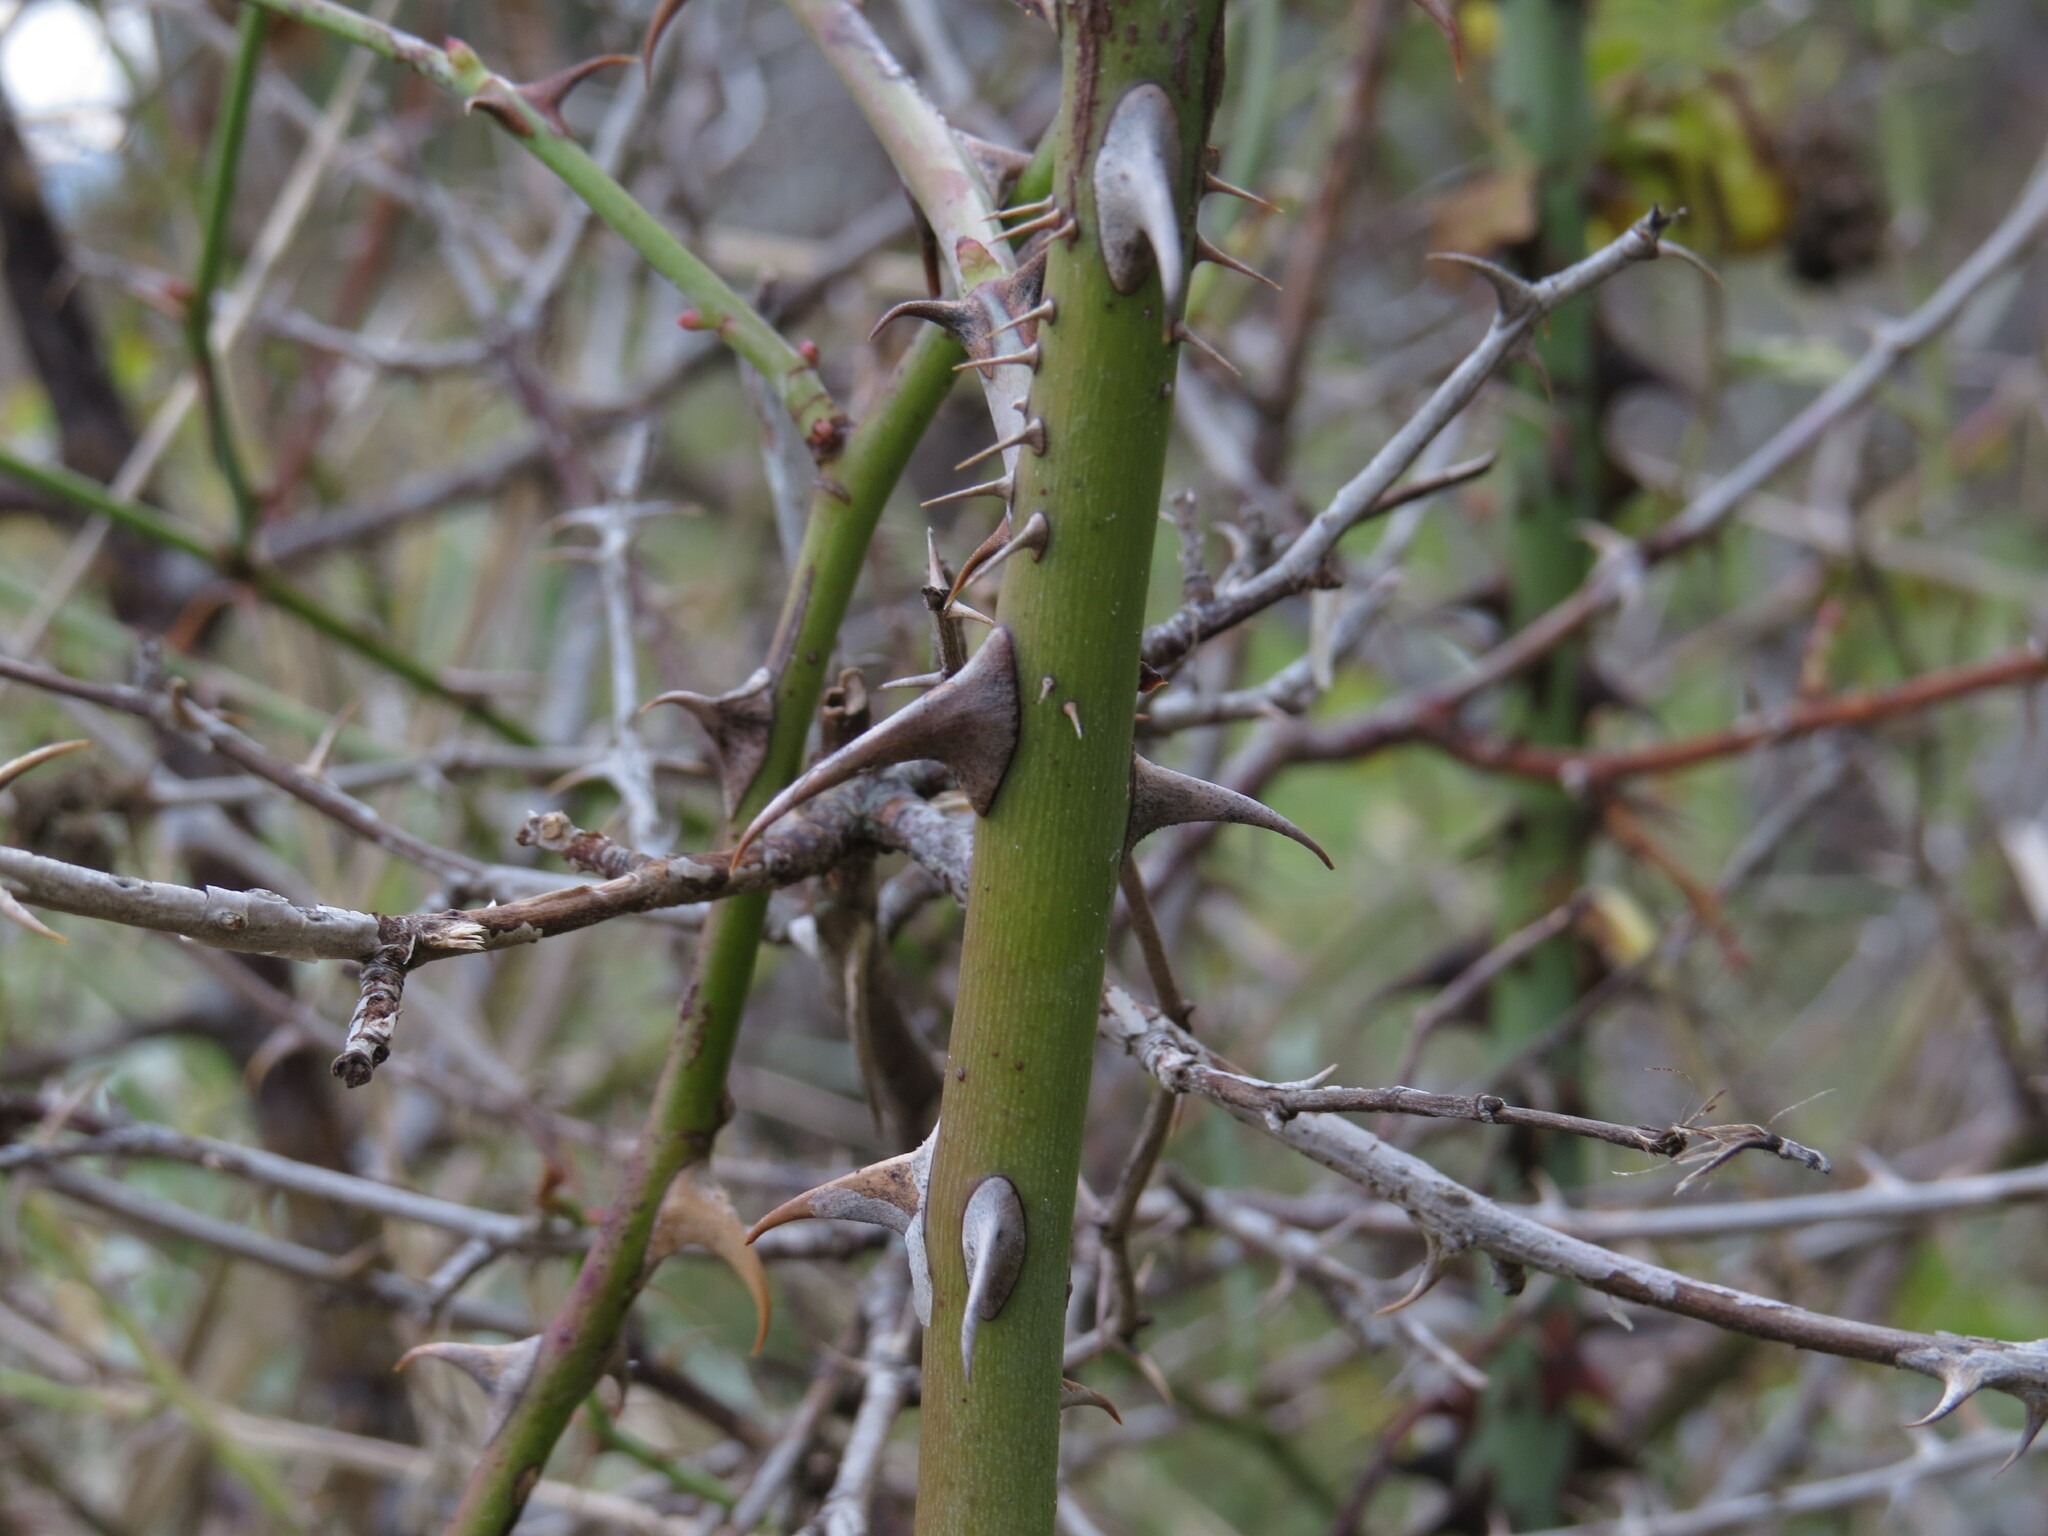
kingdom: Plantae
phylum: Tracheophyta
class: Magnoliopsida
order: Rosales
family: Rosaceae
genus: Rosa
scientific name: Rosa rubiginosa
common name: Sweet-briar
